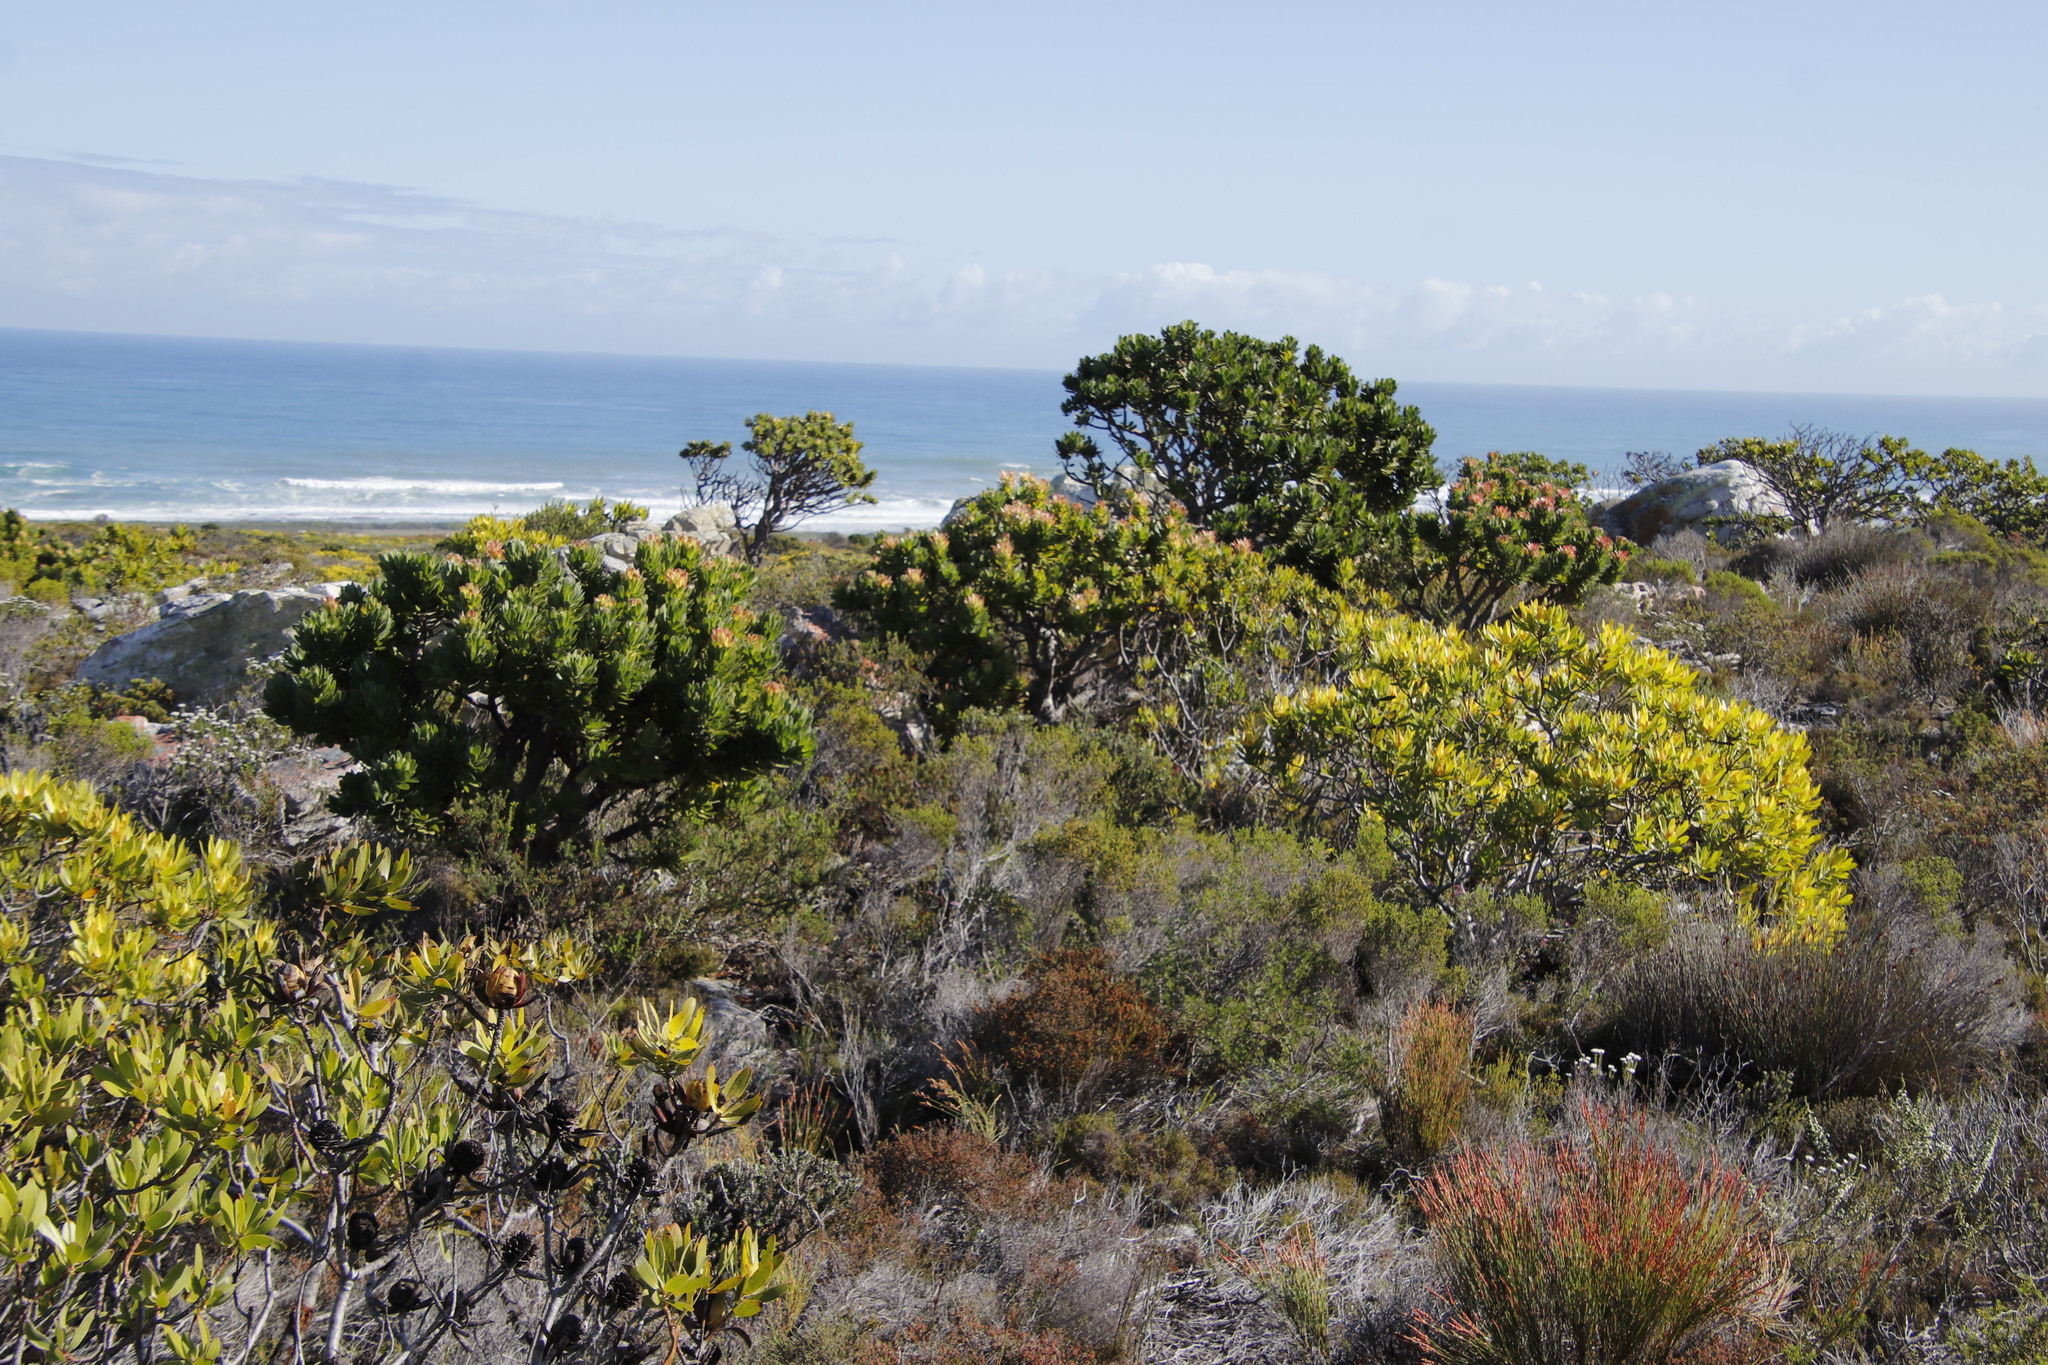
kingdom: Plantae
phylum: Tracheophyta
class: Magnoliopsida
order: Proteales
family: Proteaceae
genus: Mimetes
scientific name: Mimetes fimbriifolius
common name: Fringed bottlebrush
